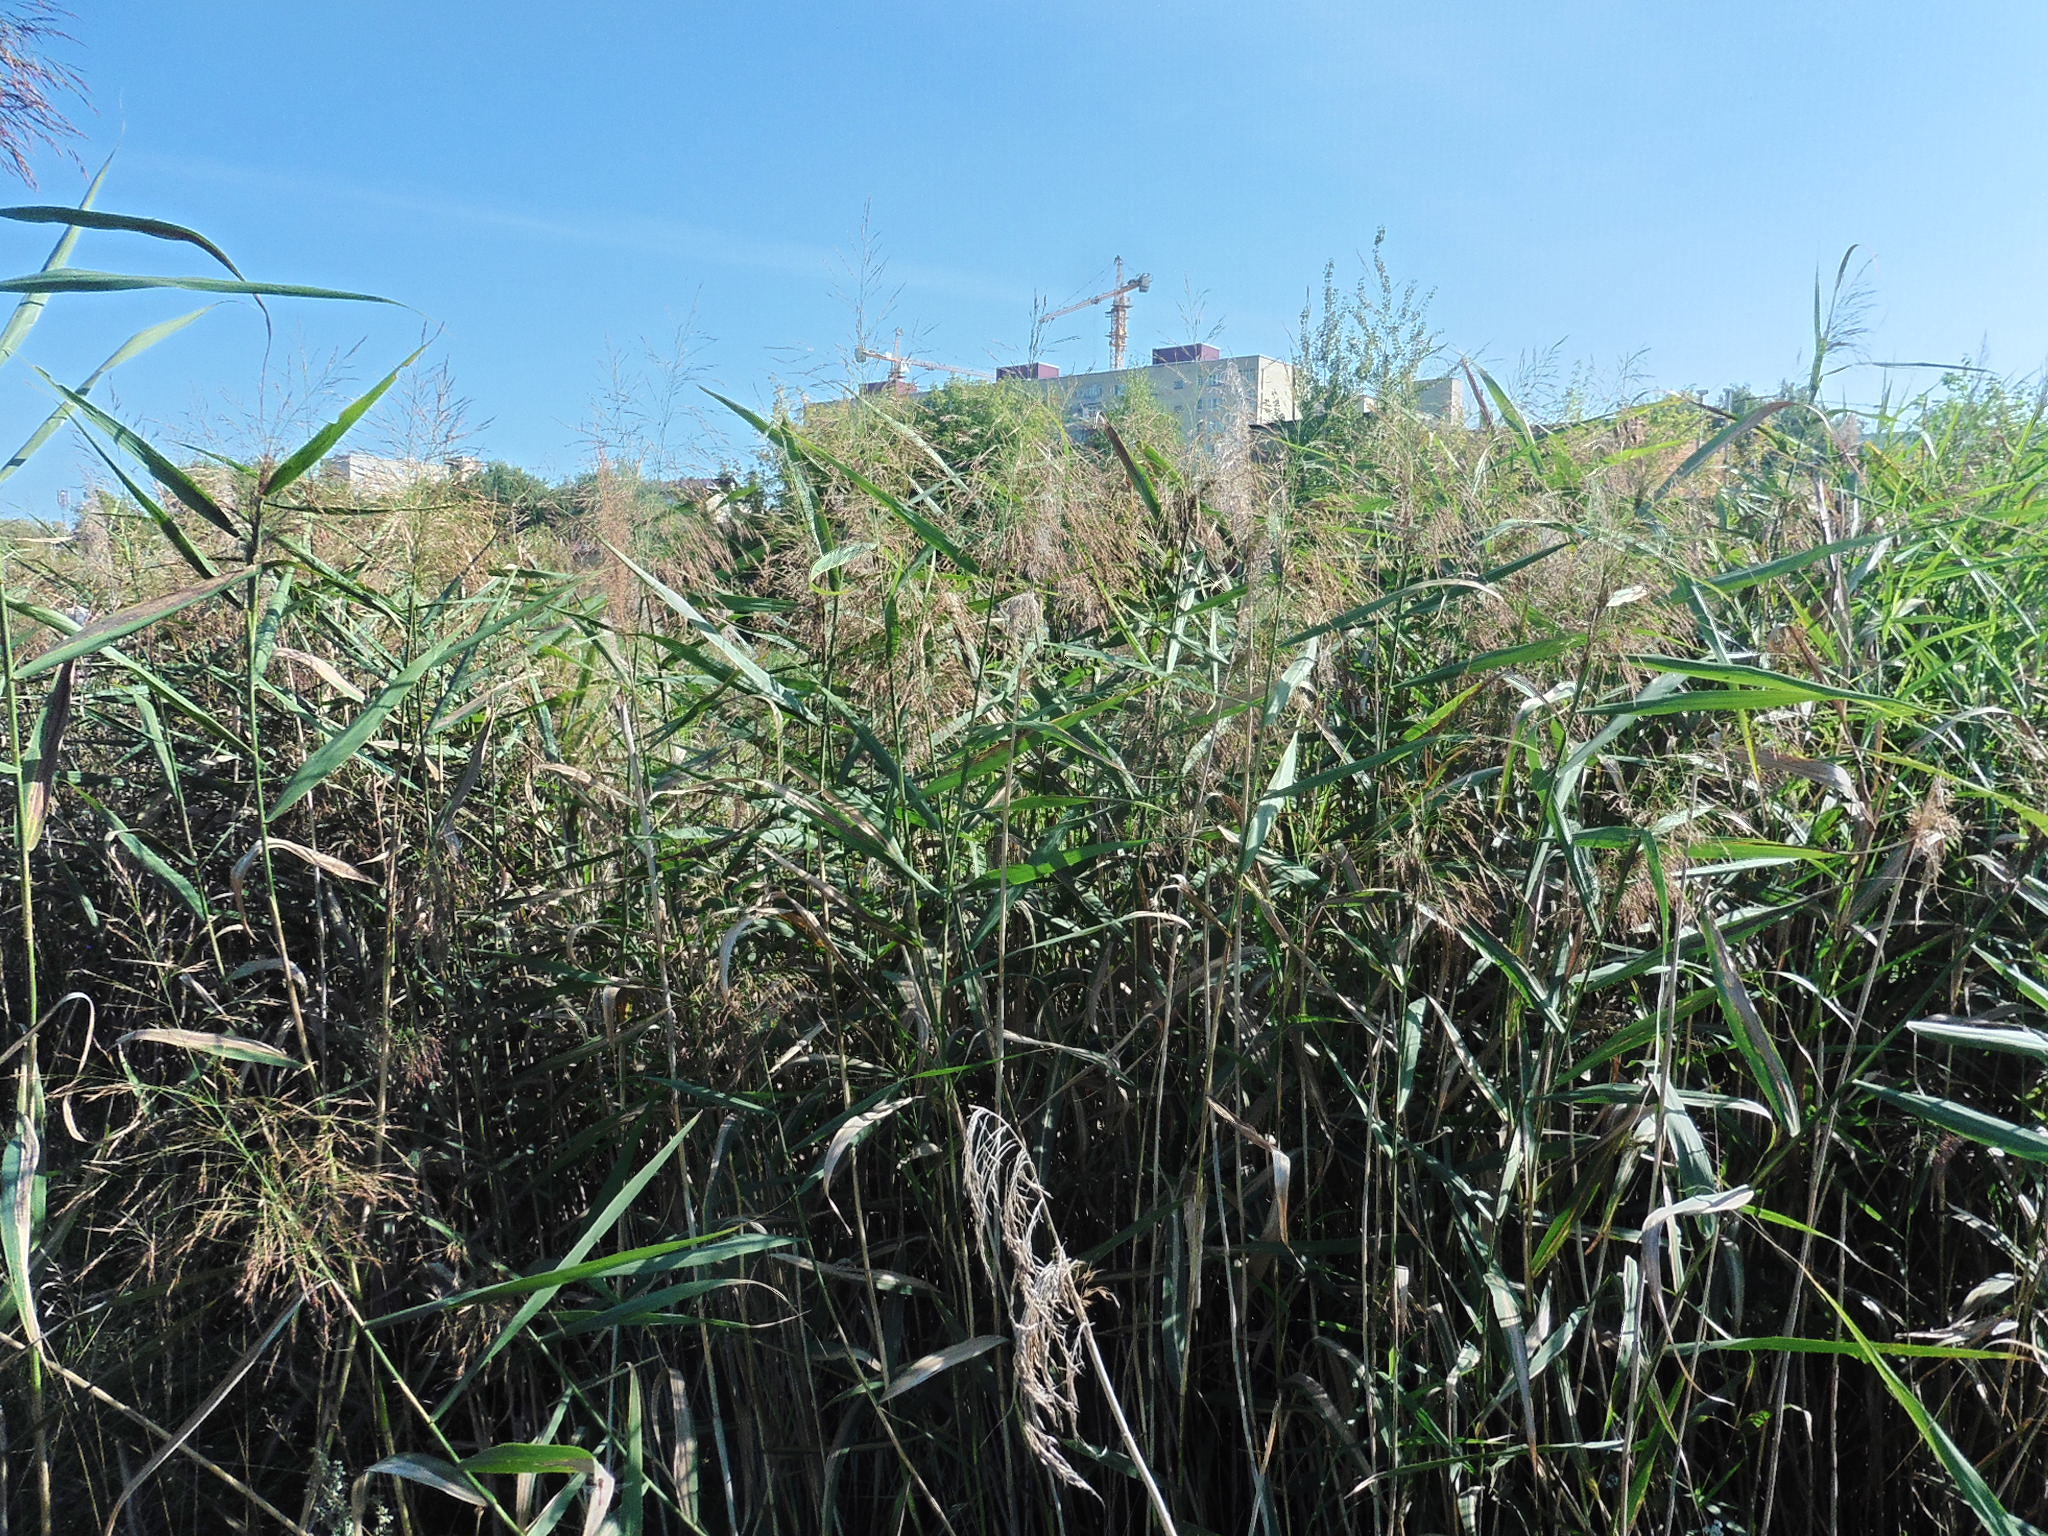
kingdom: Plantae
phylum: Tracheophyta
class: Liliopsida
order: Poales
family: Poaceae
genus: Phragmites
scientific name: Phragmites australis
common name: Common reed
